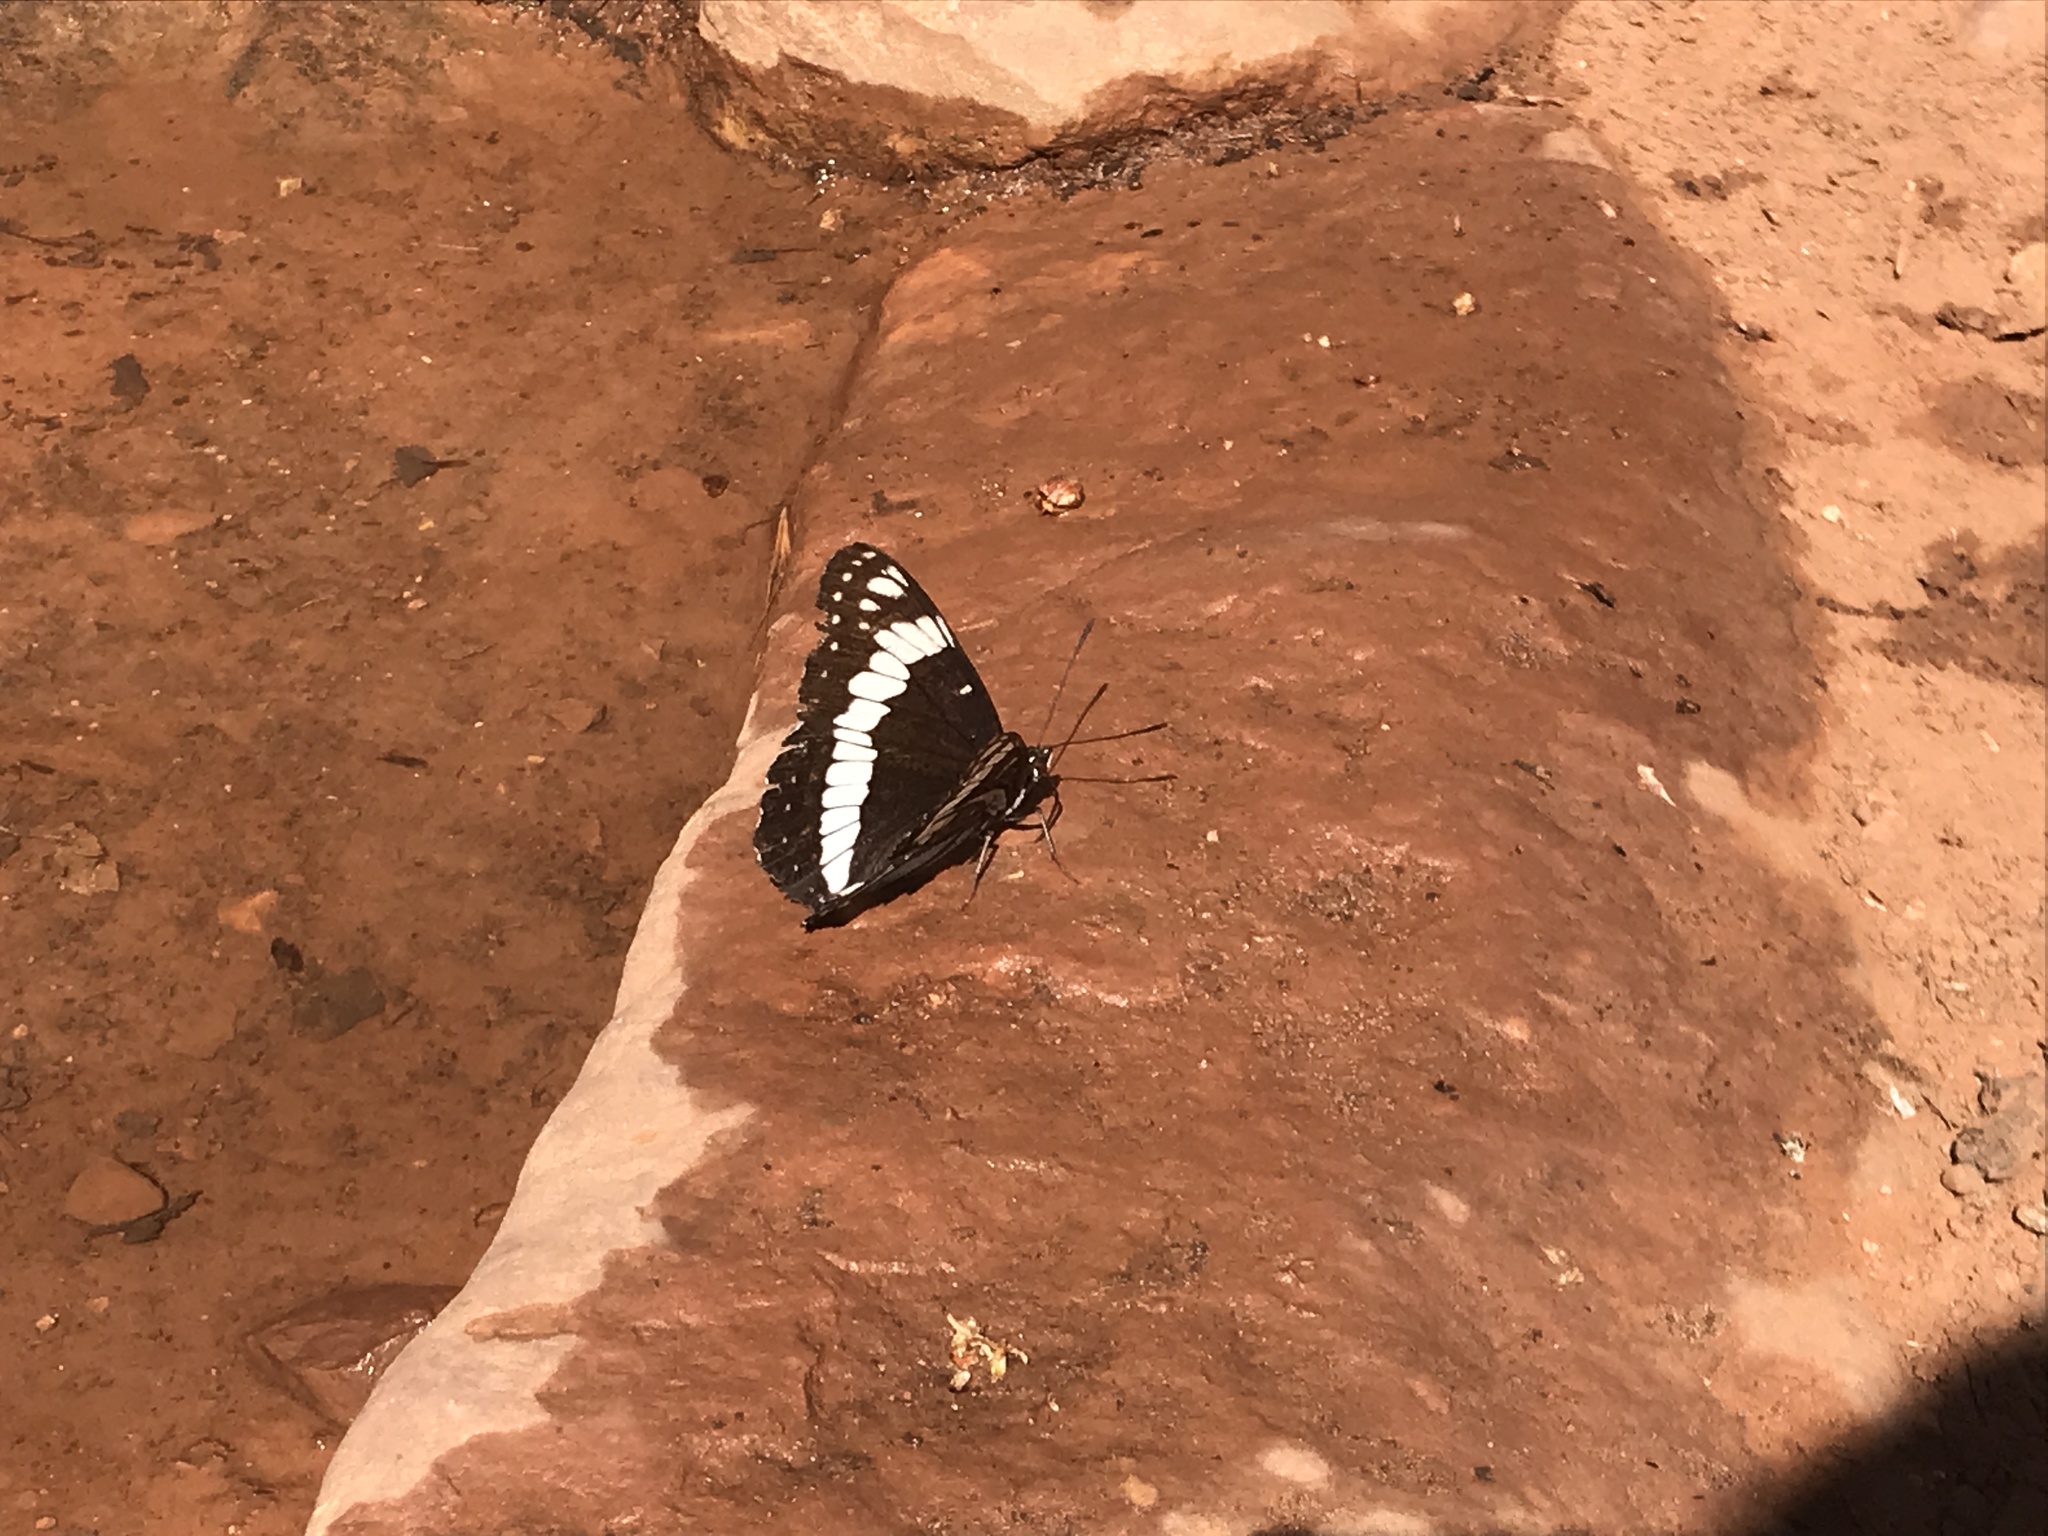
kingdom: Animalia
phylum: Arthropoda
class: Insecta
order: Lepidoptera
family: Nymphalidae
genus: Limenitis
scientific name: Limenitis weidemeyerii
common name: Weidemeyer's admiral
